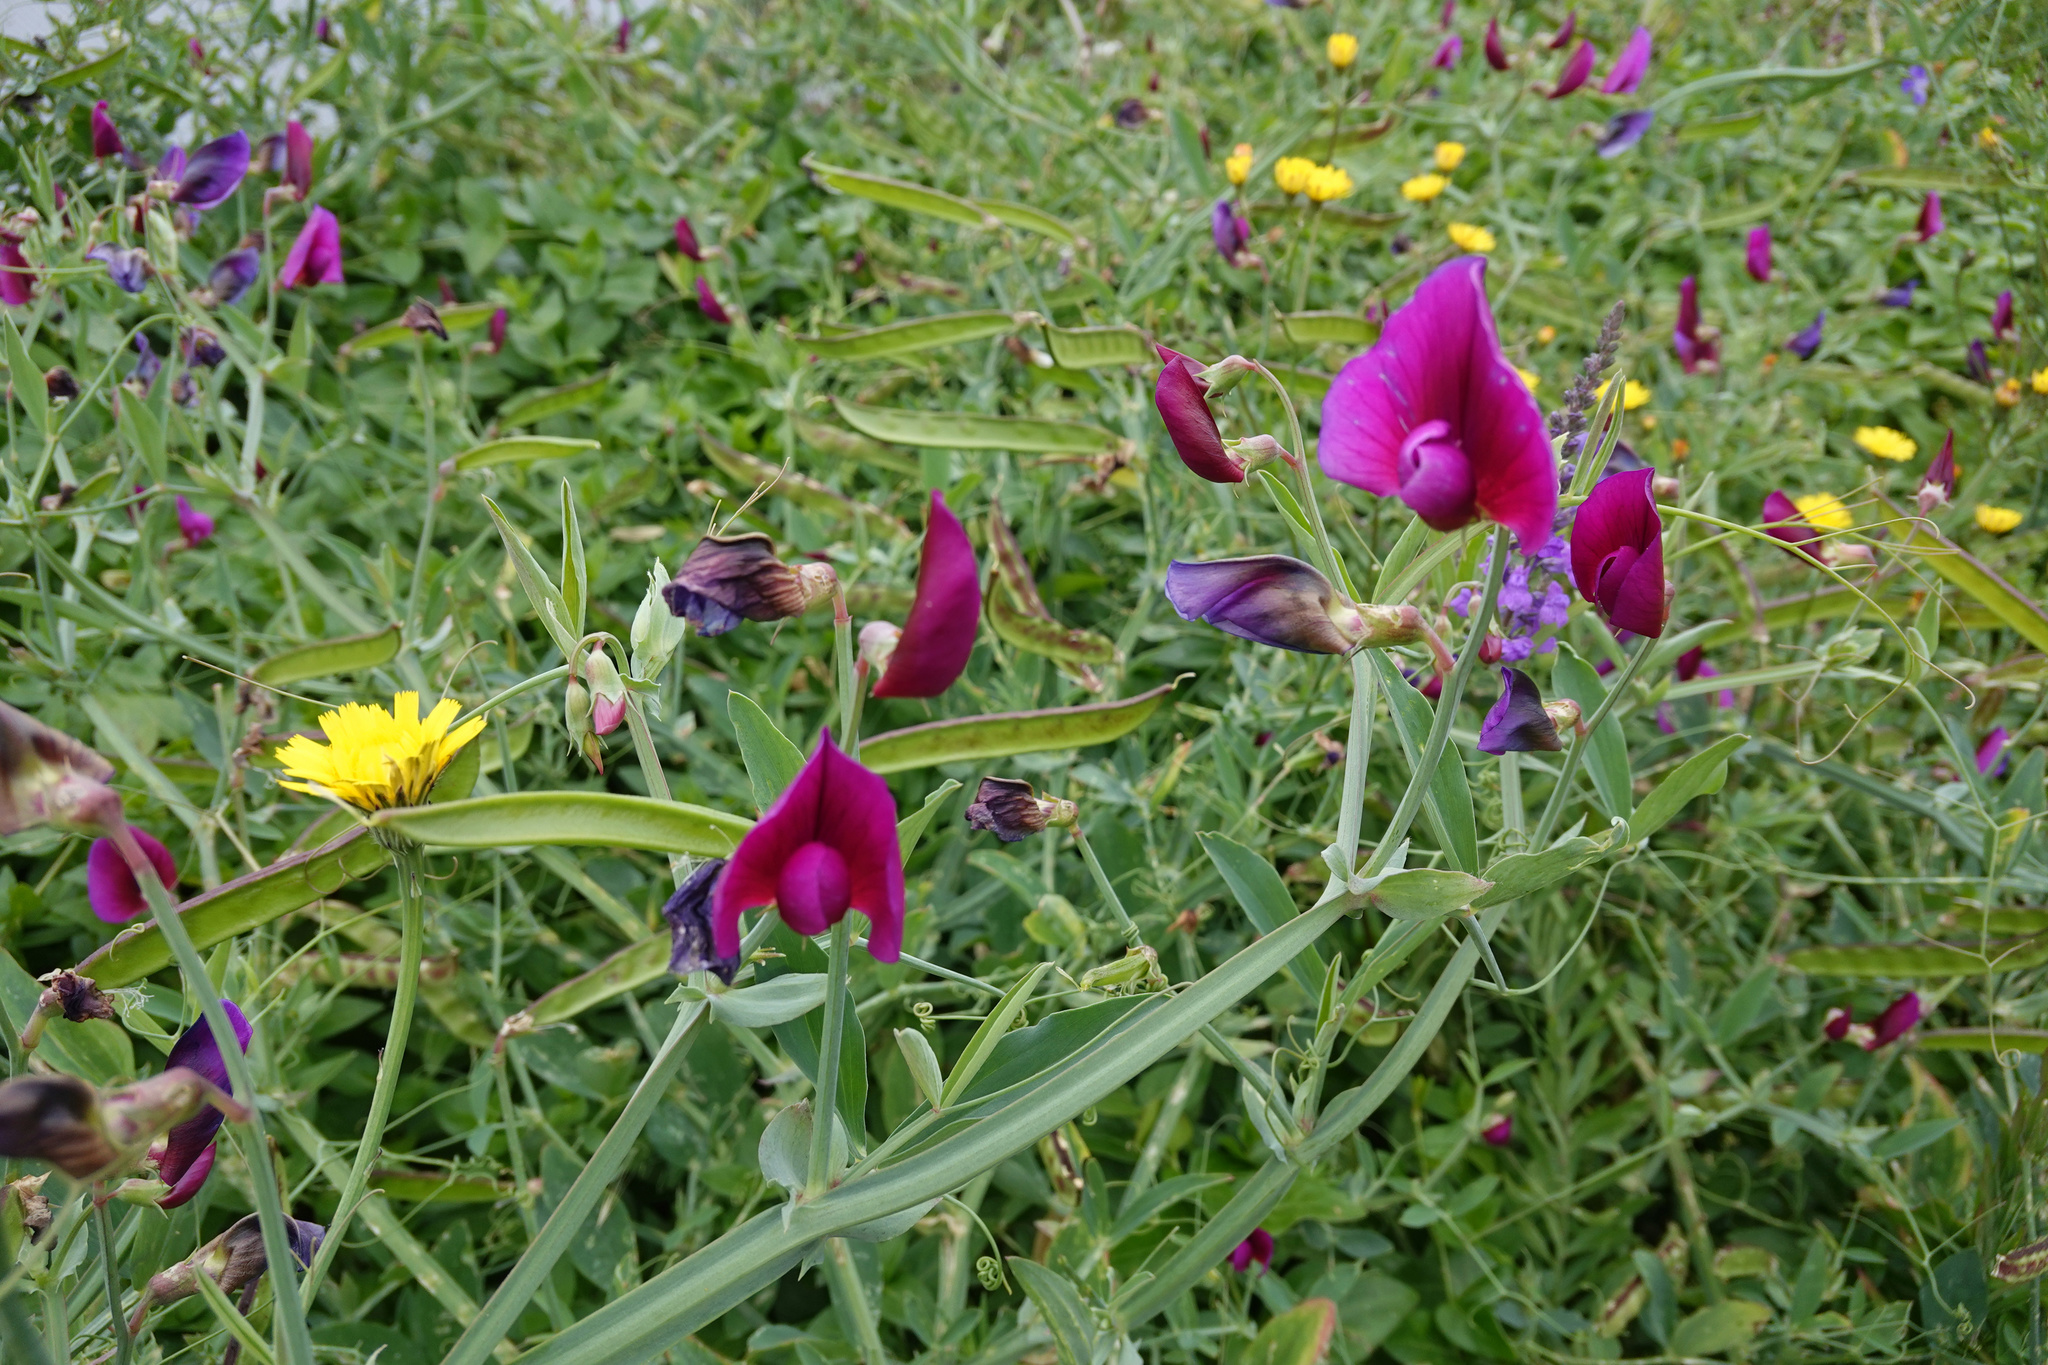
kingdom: Plantae
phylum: Tracheophyta
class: Magnoliopsida
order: Fabales
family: Fabaceae
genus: Lathyrus
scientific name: Lathyrus tingitanus
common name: Tangier pea
